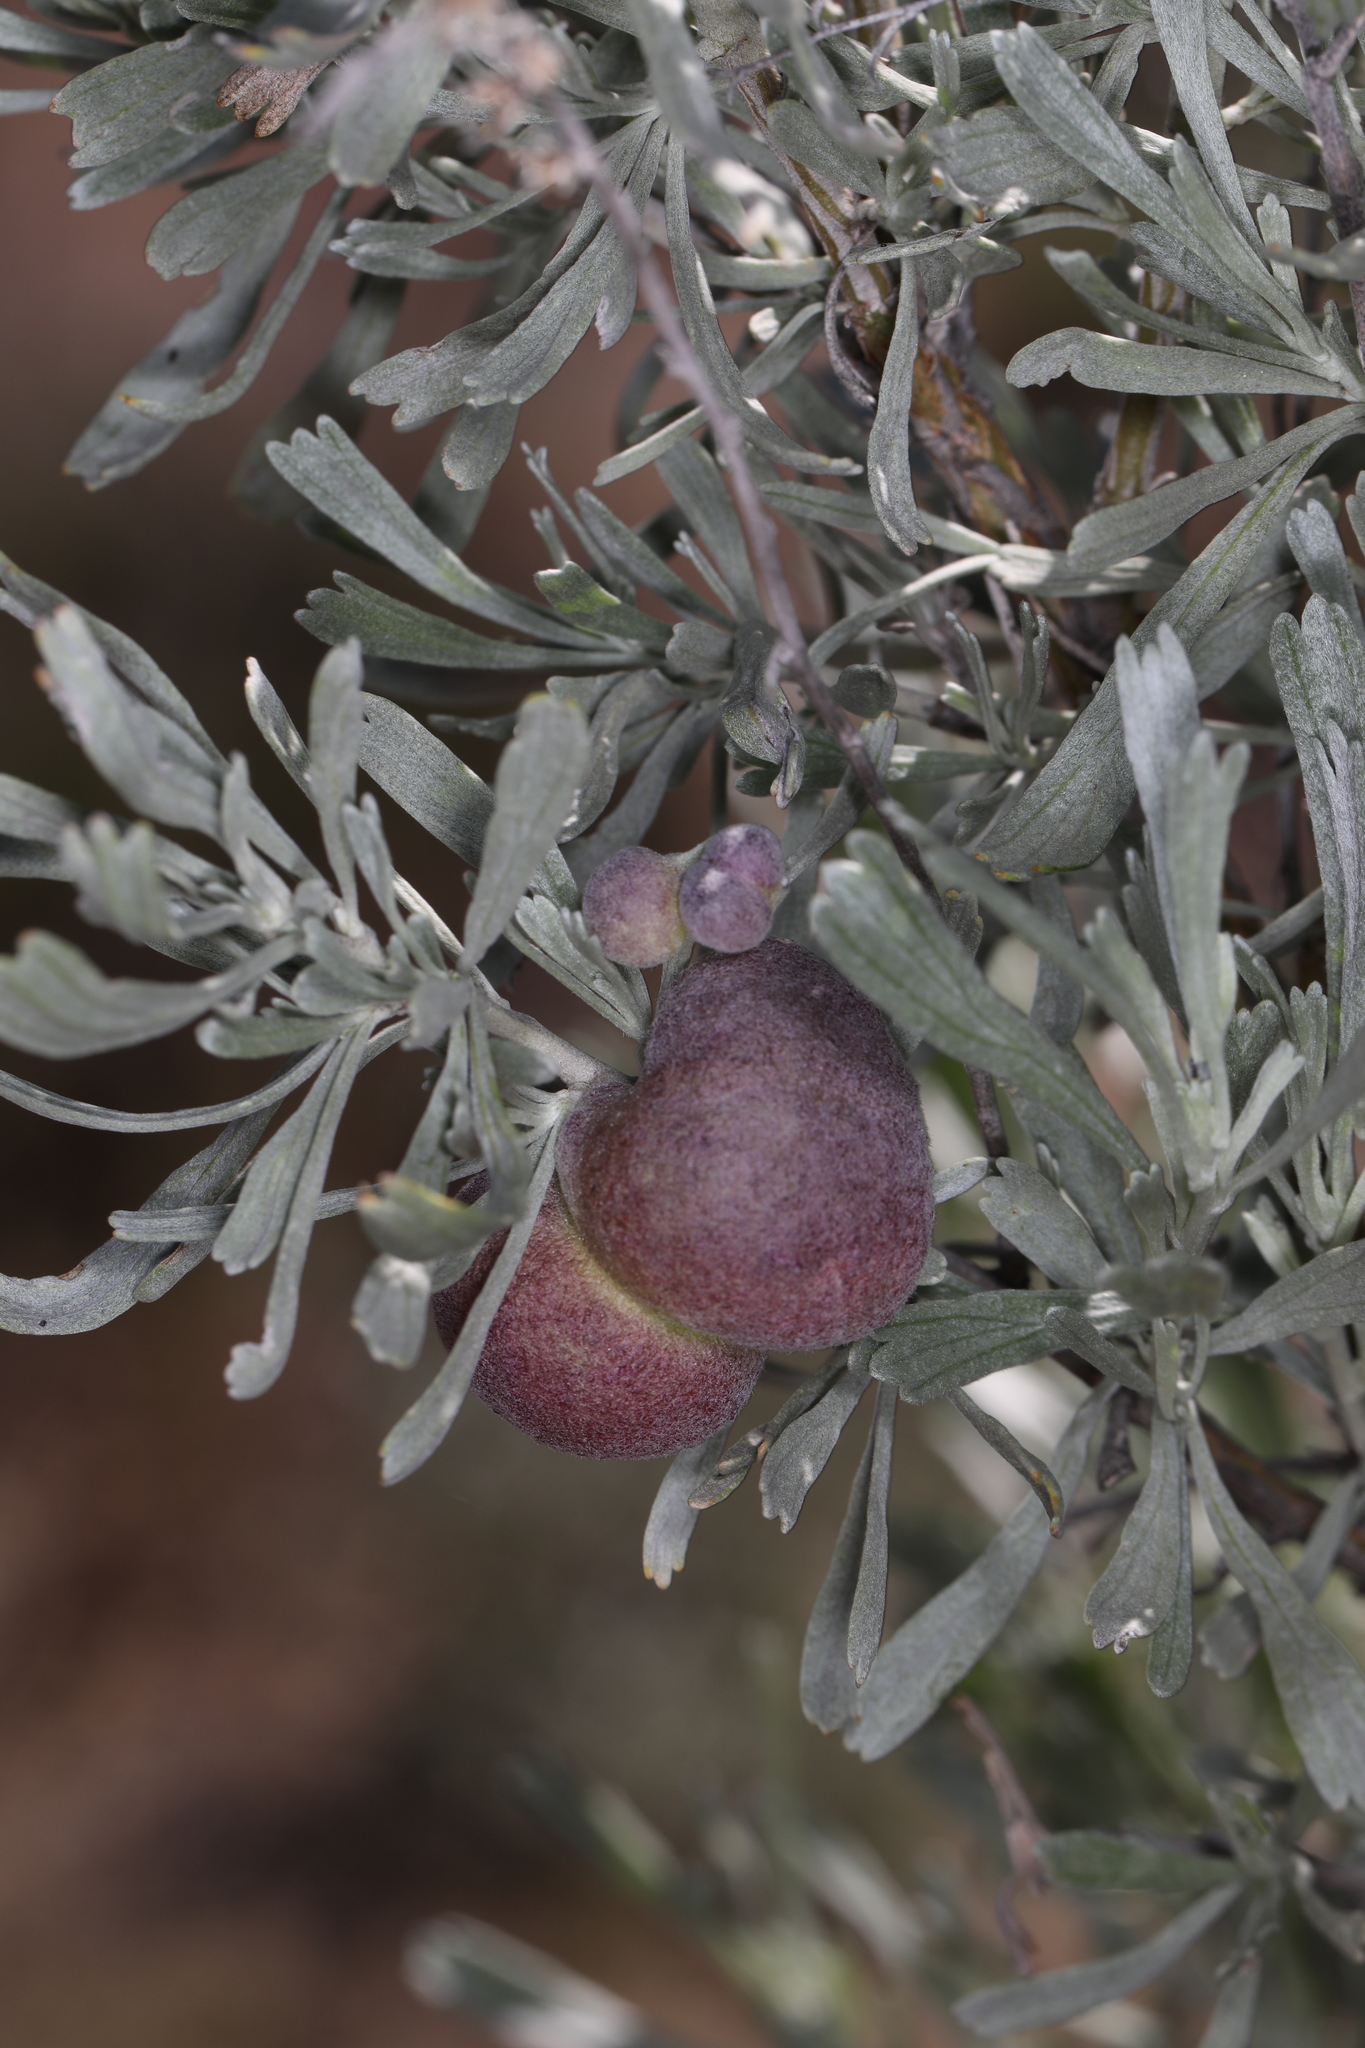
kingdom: Plantae
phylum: Tracheophyta
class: Magnoliopsida
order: Asterales
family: Asteraceae
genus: Artemisia
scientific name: Artemisia tridentata
